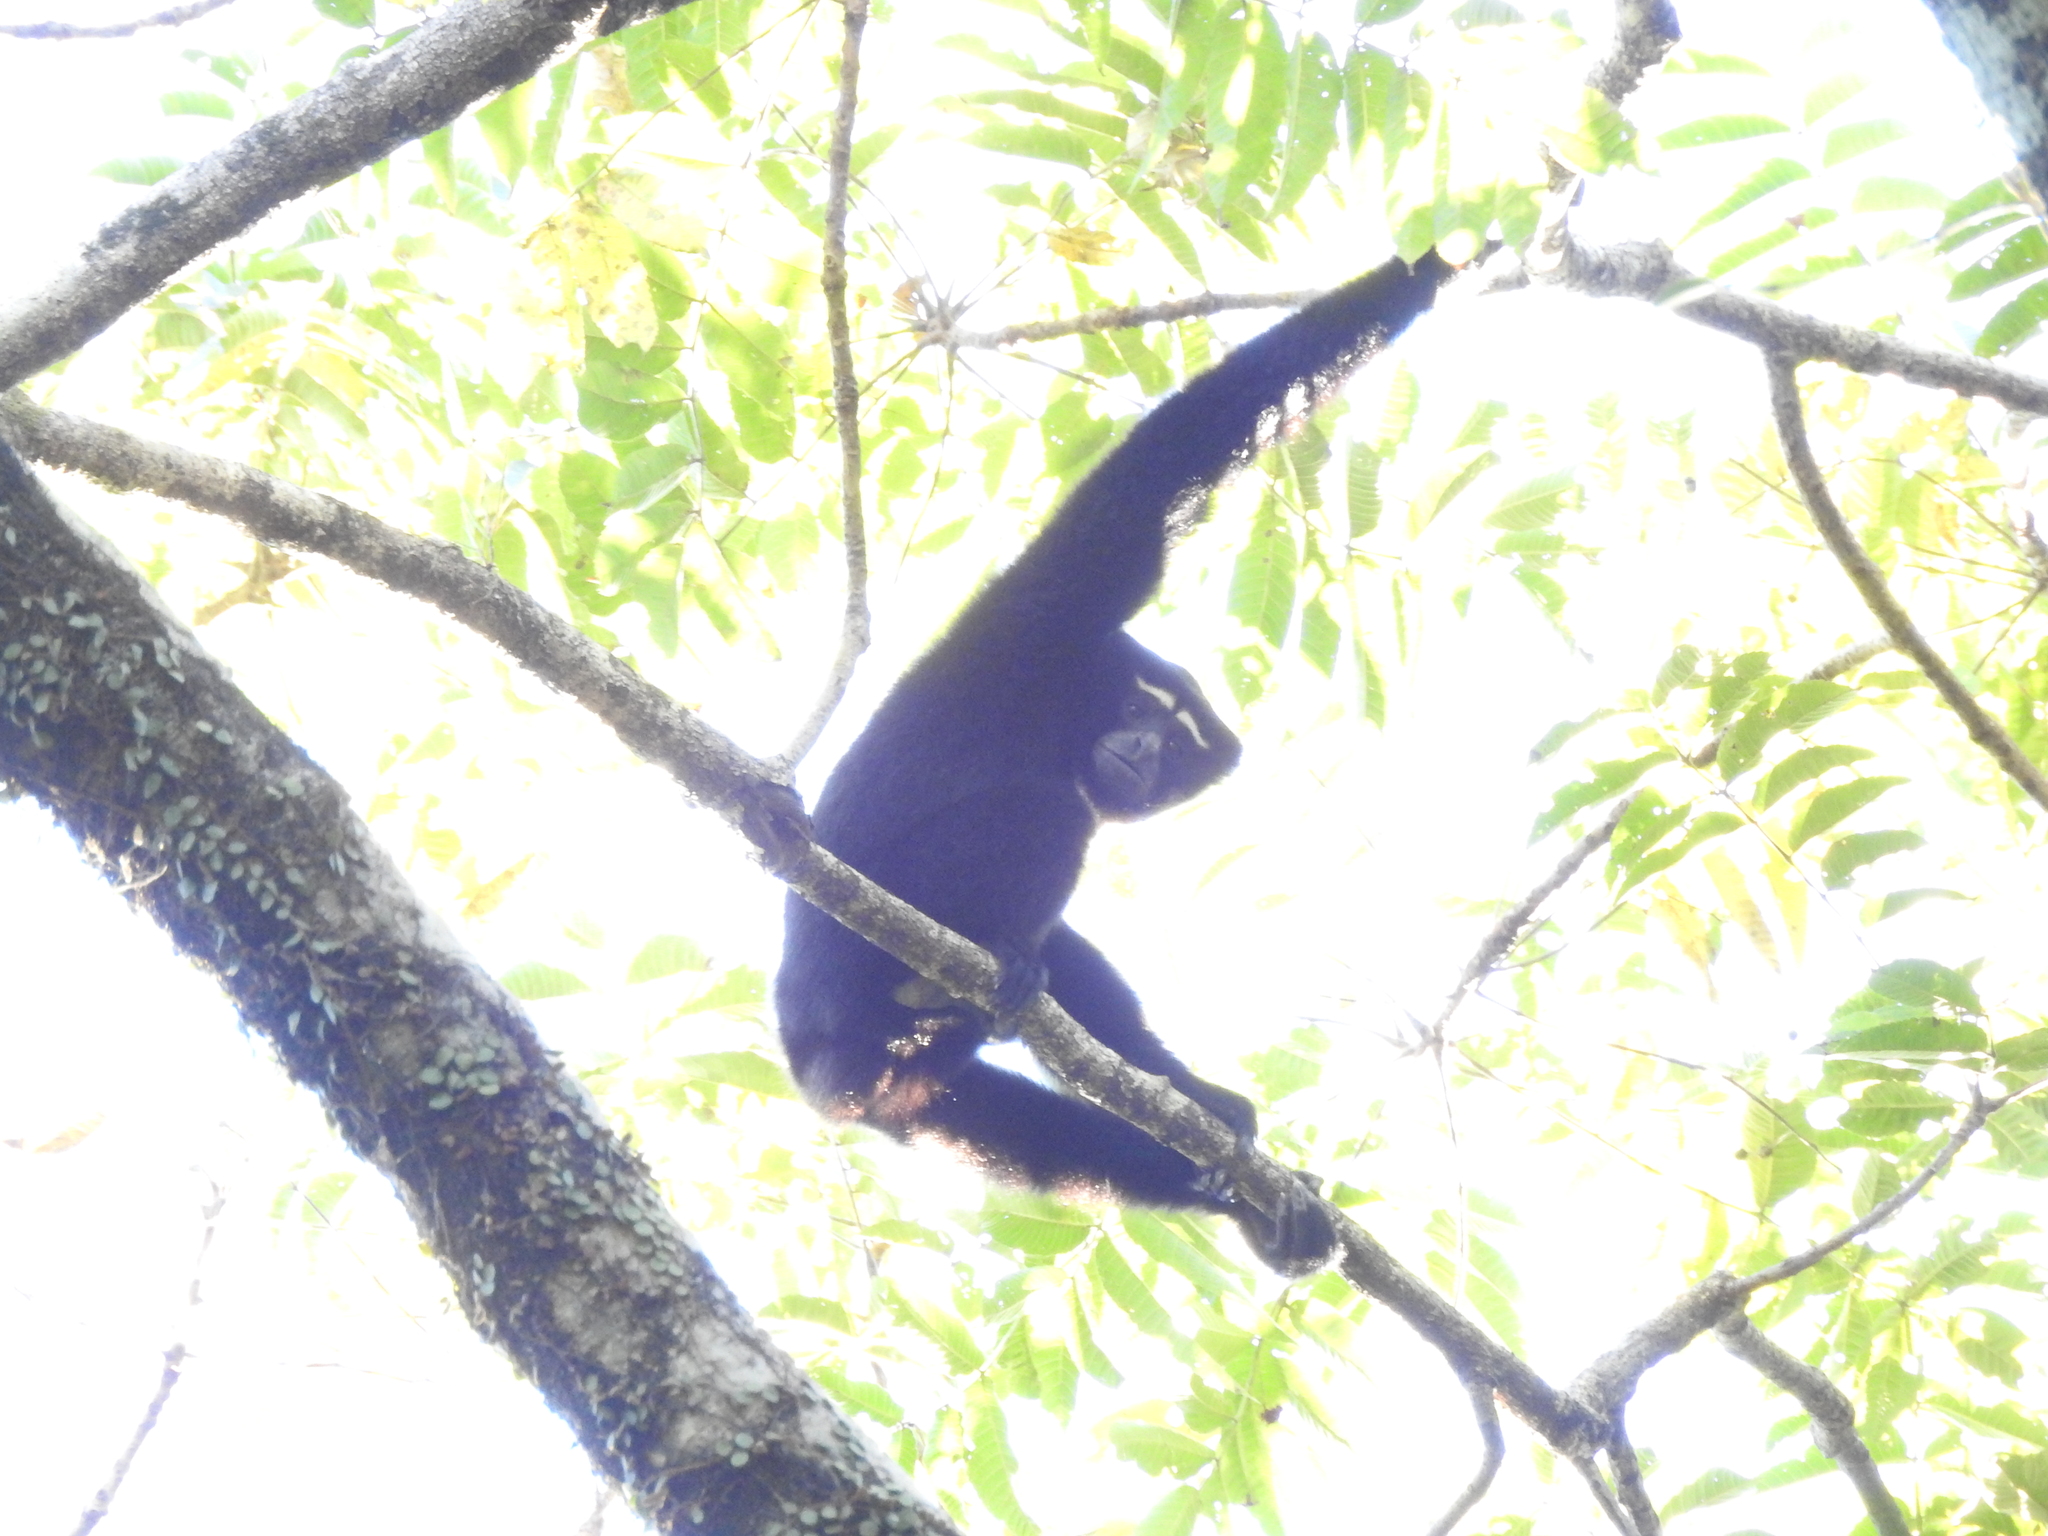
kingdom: Animalia
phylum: Chordata
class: Mammalia
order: Primates
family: Hylobatidae
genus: Hoolock
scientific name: Hoolock hoolock
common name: Western hoolock gibbon
